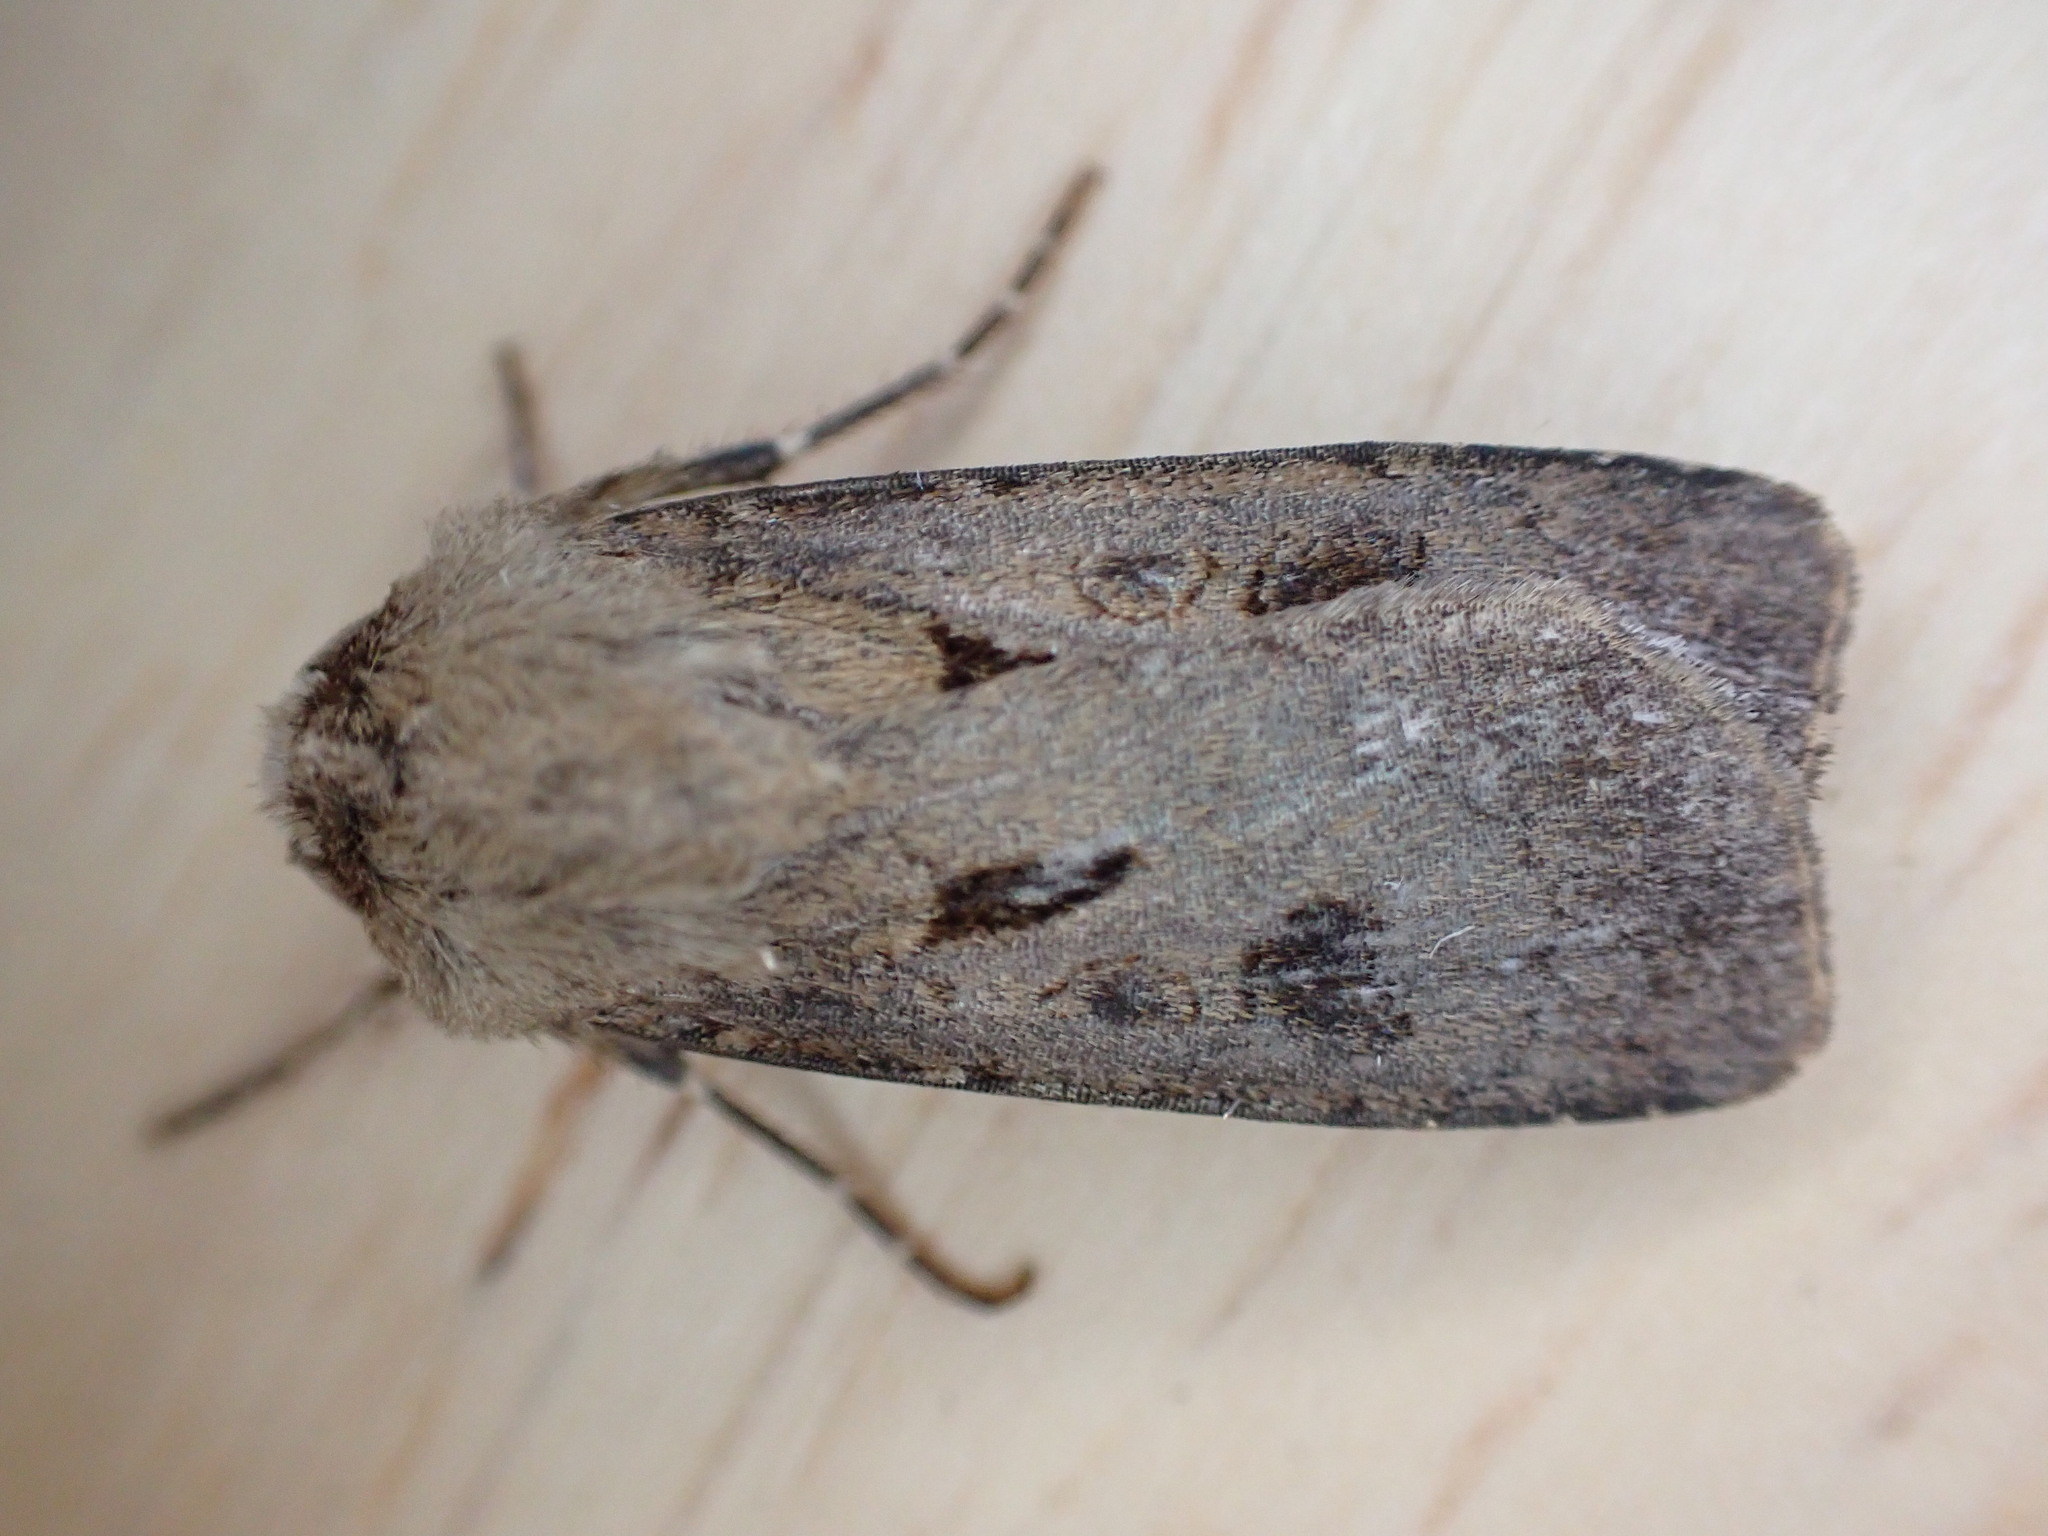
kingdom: Animalia
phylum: Arthropoda
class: Insecta
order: Lepidoptera
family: Noctuidae
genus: Agrotis
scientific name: Agrotis exclamationis
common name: Heart and dart
